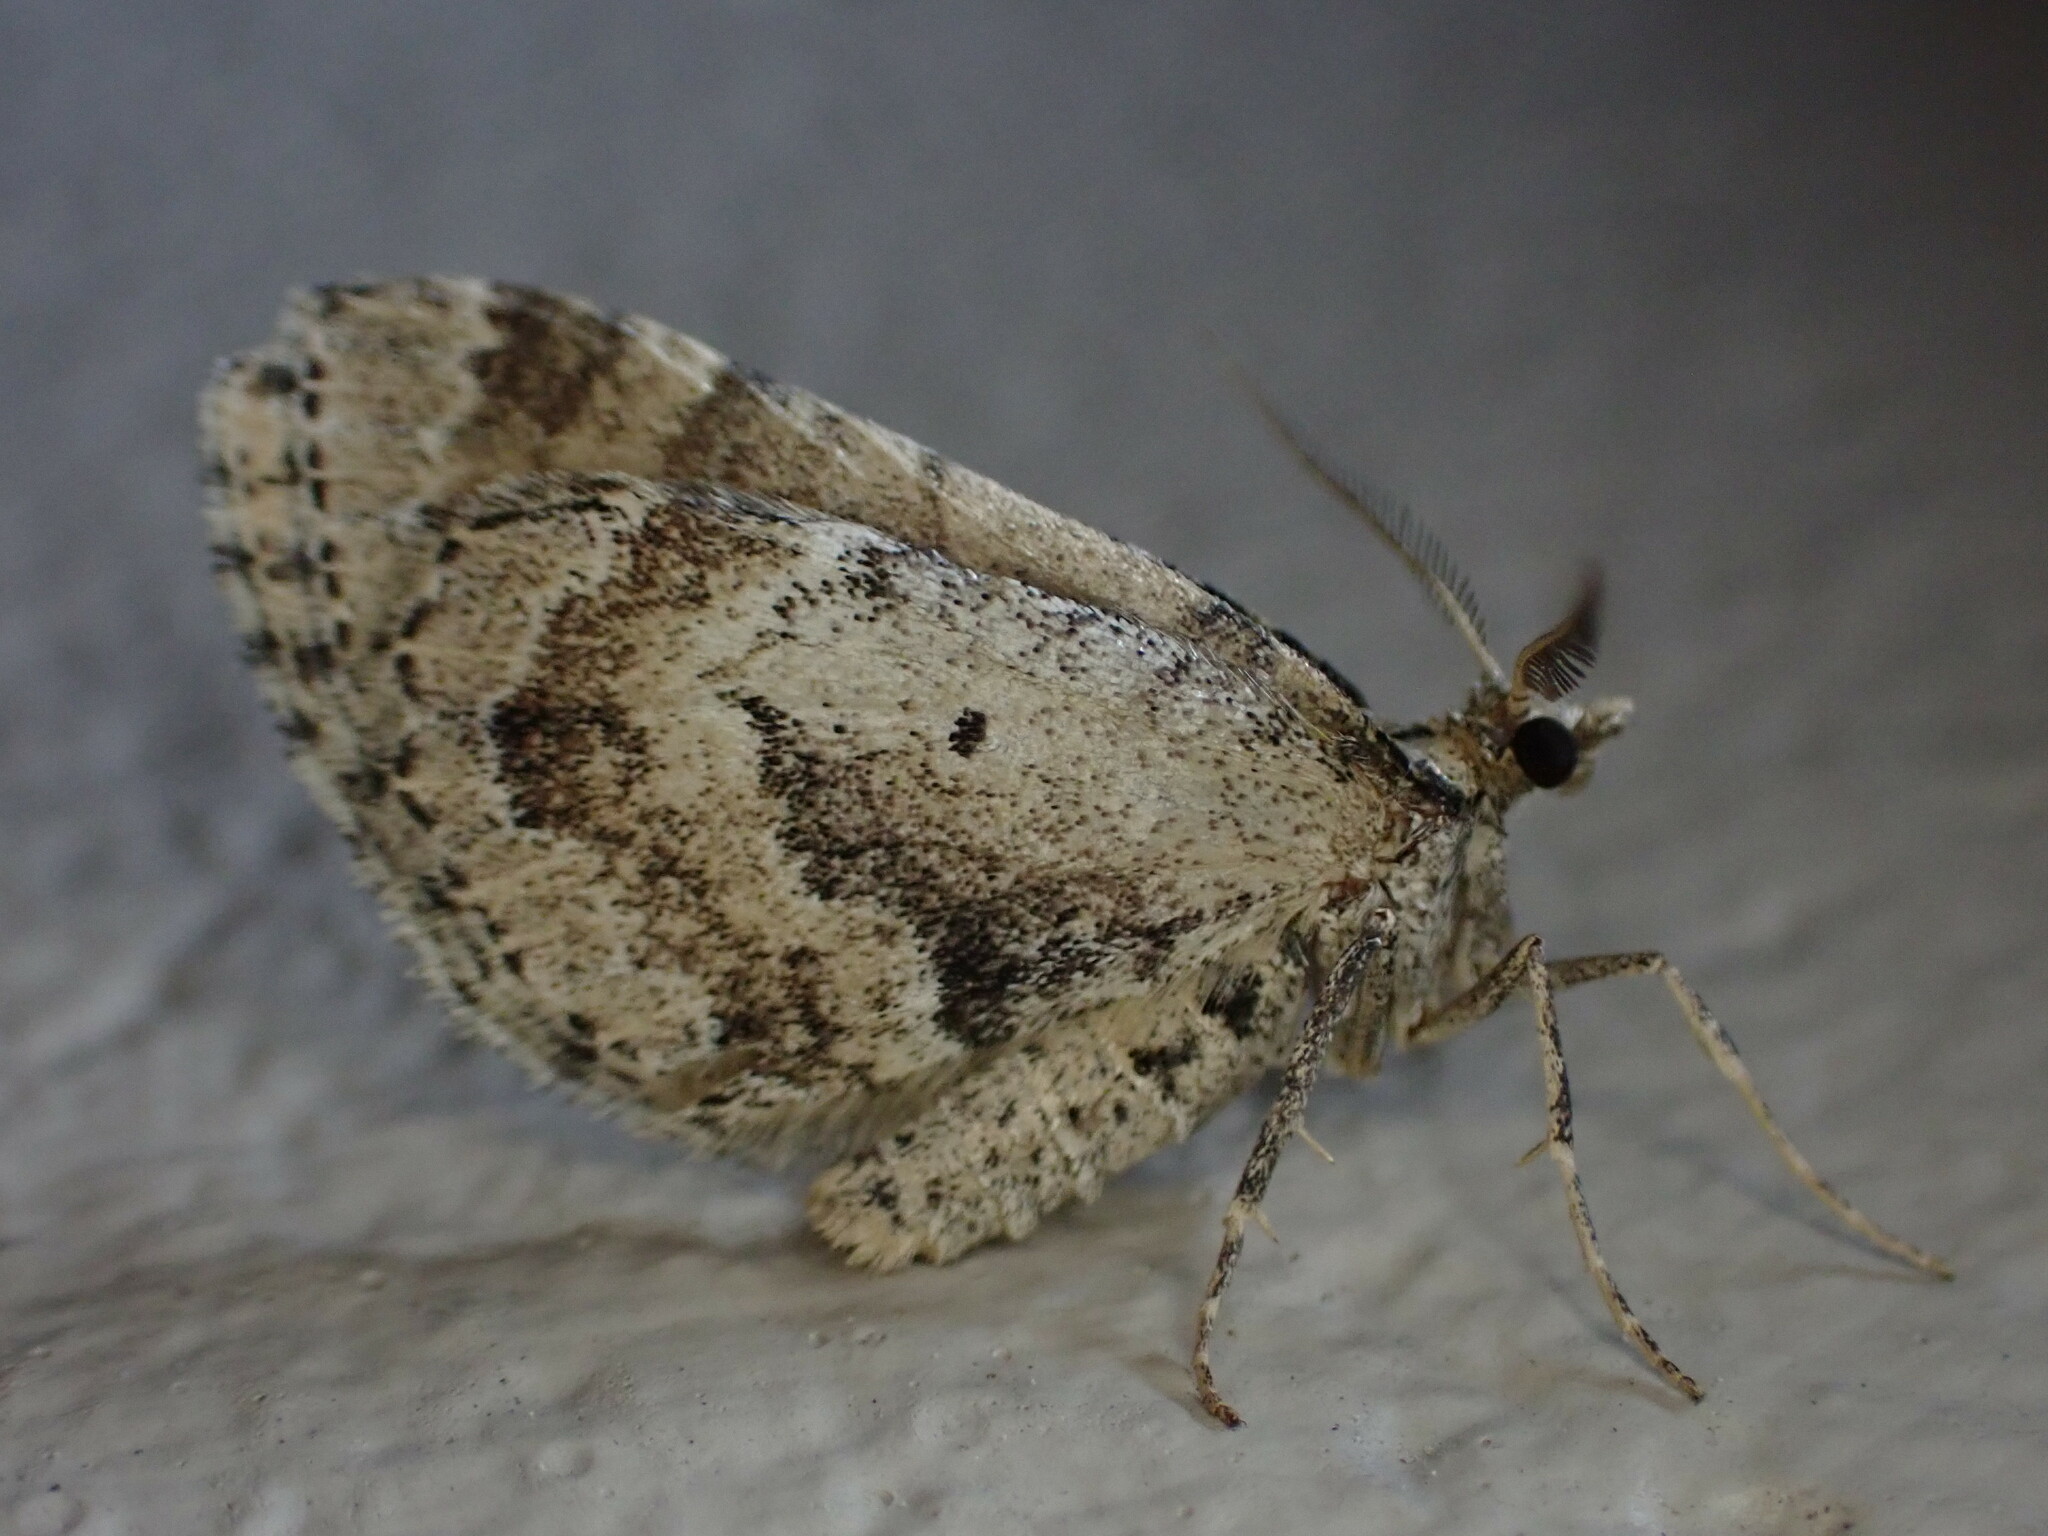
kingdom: Animalia
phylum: Arthropoda
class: Insecta
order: Lepidoptera
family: Geometridae
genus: Asaphodes
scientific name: Asaphodes aegrota
